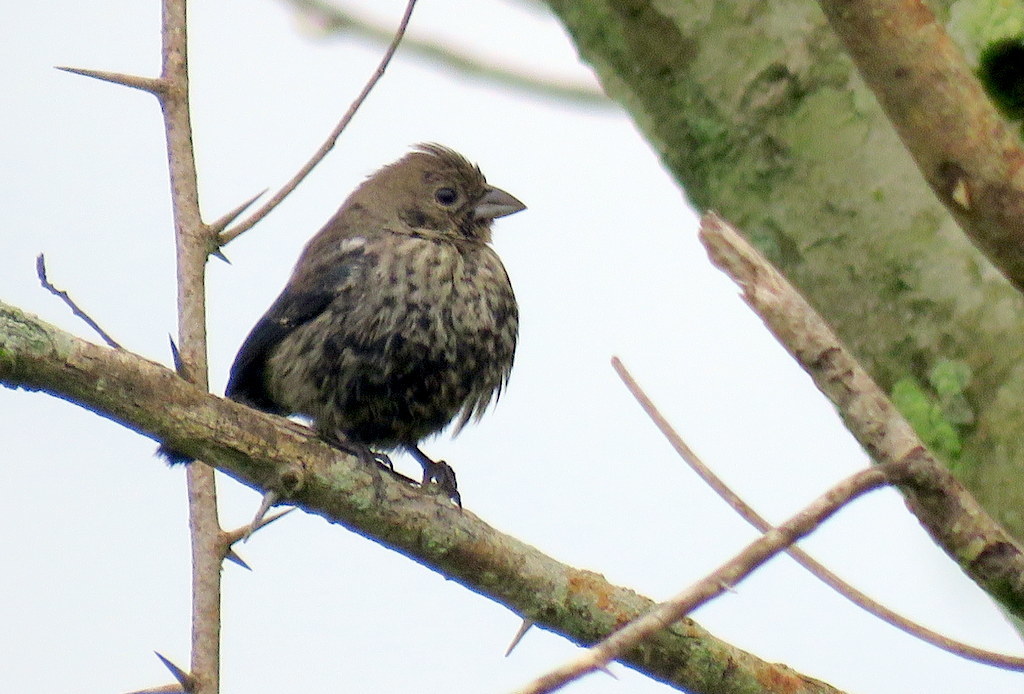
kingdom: Animalia
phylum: Chordata
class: Aves
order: Passeriformes
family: Thraupidae
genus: Volatinia
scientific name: Volatinia jacarina
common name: Blue-black grassquit
